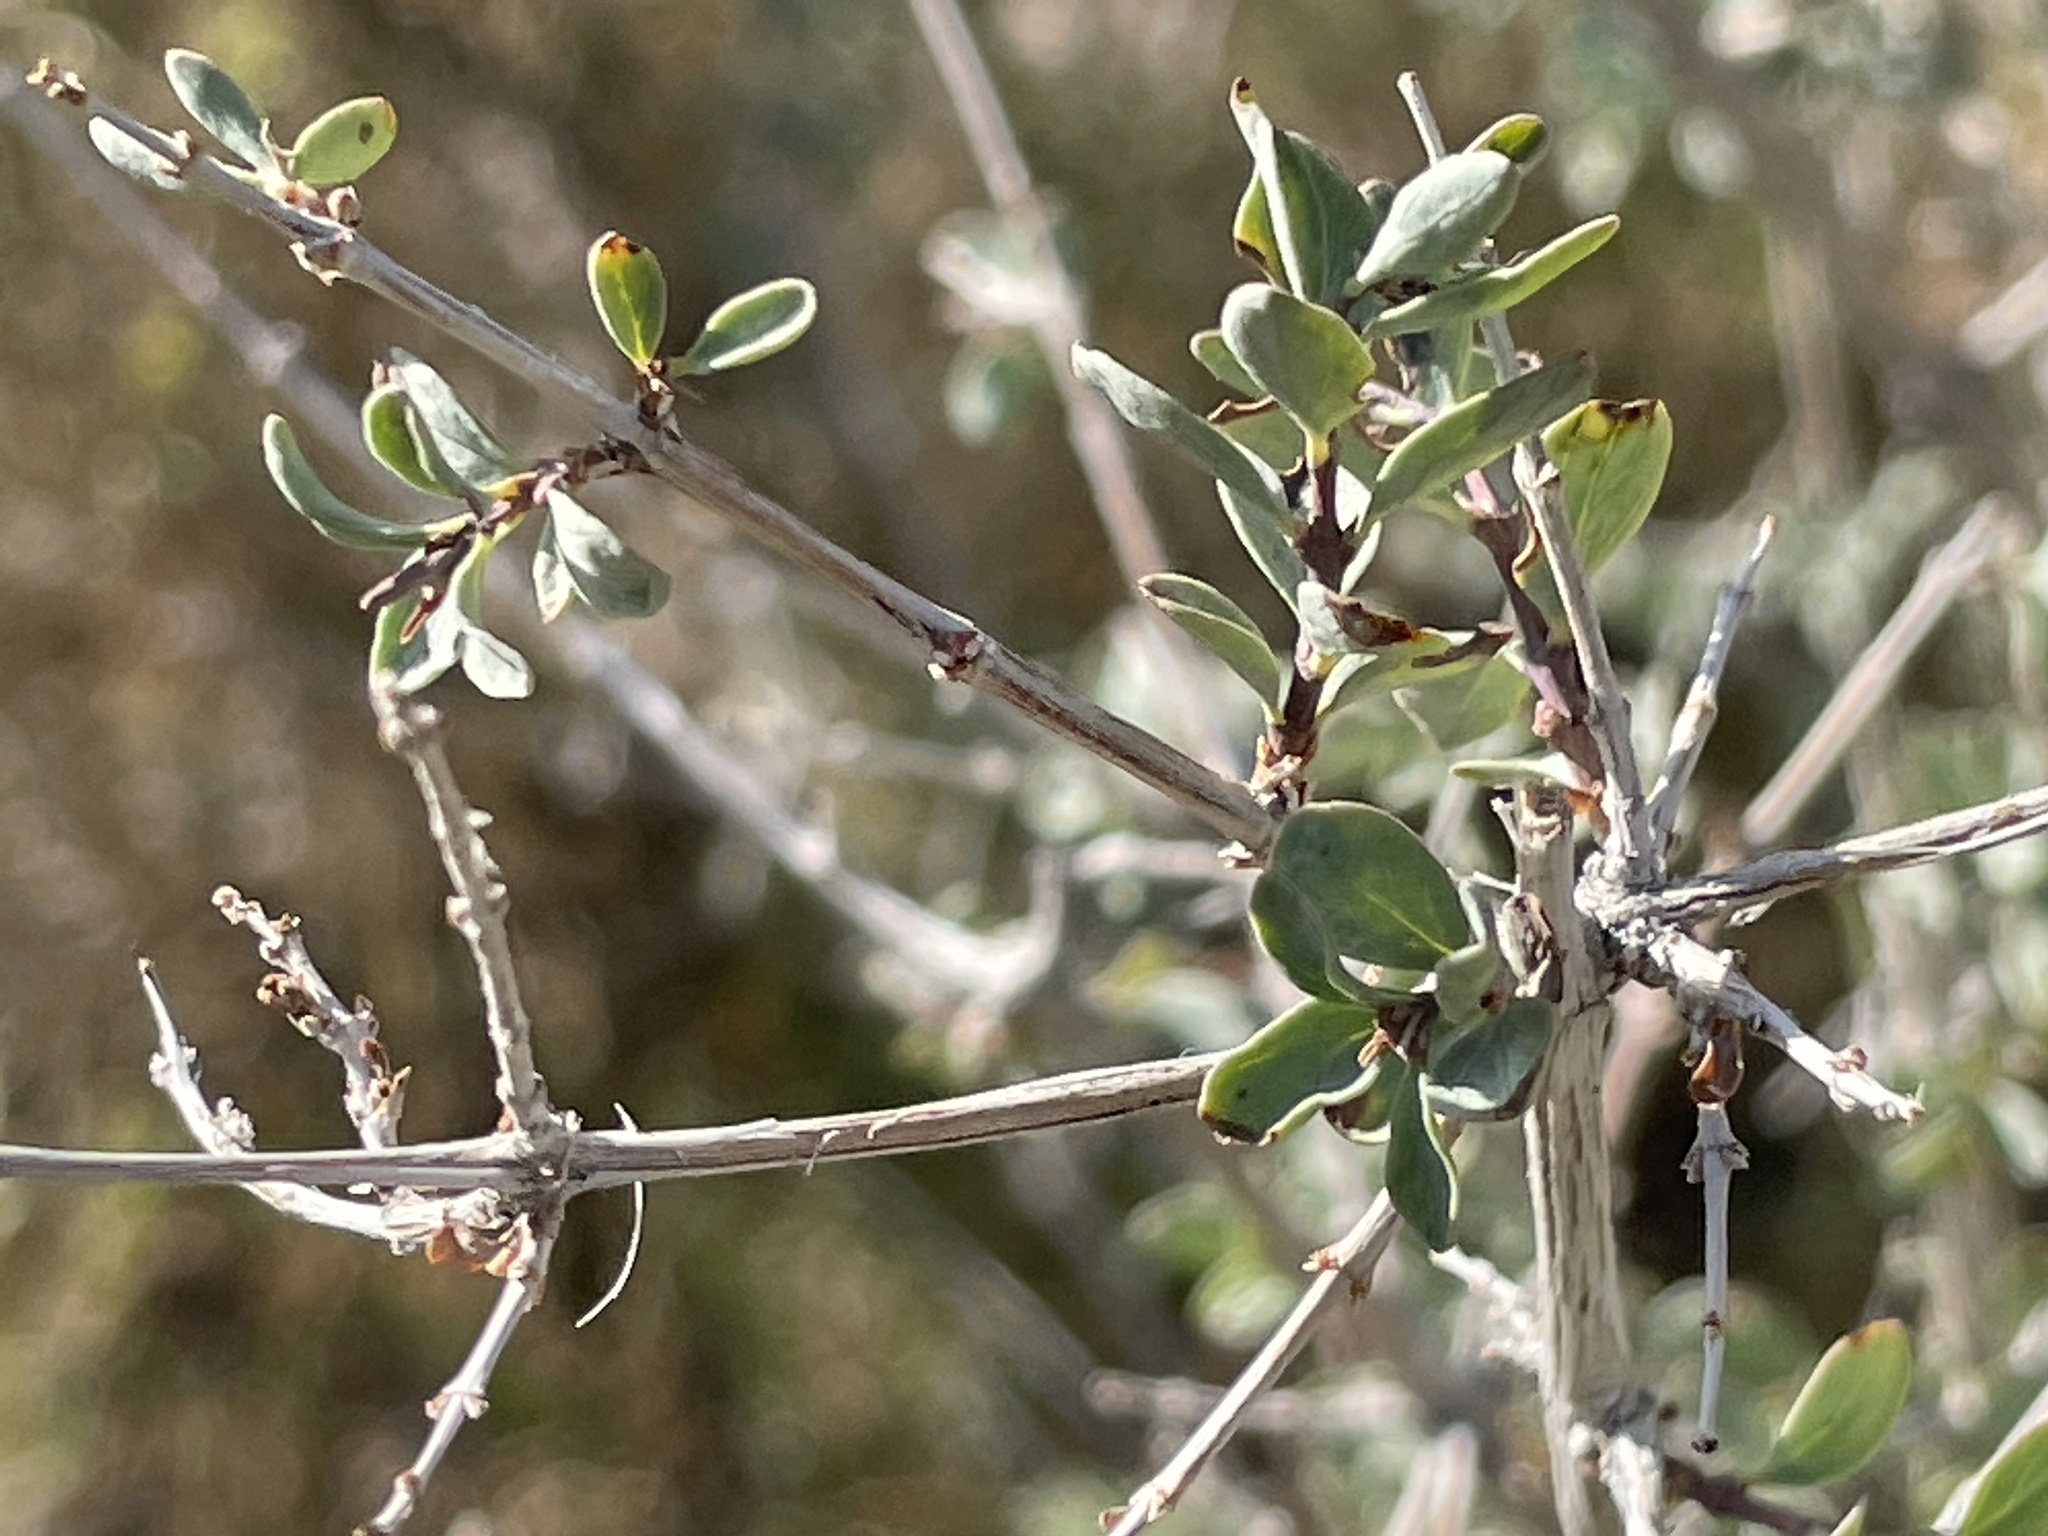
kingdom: Plantae
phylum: Tracheophyta
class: Magnoliopsida
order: Dipsacales
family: Caprifoliaceae
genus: Symphoricarpos
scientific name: Symphoricarpos longiflorus
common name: Fragrant snowberry
